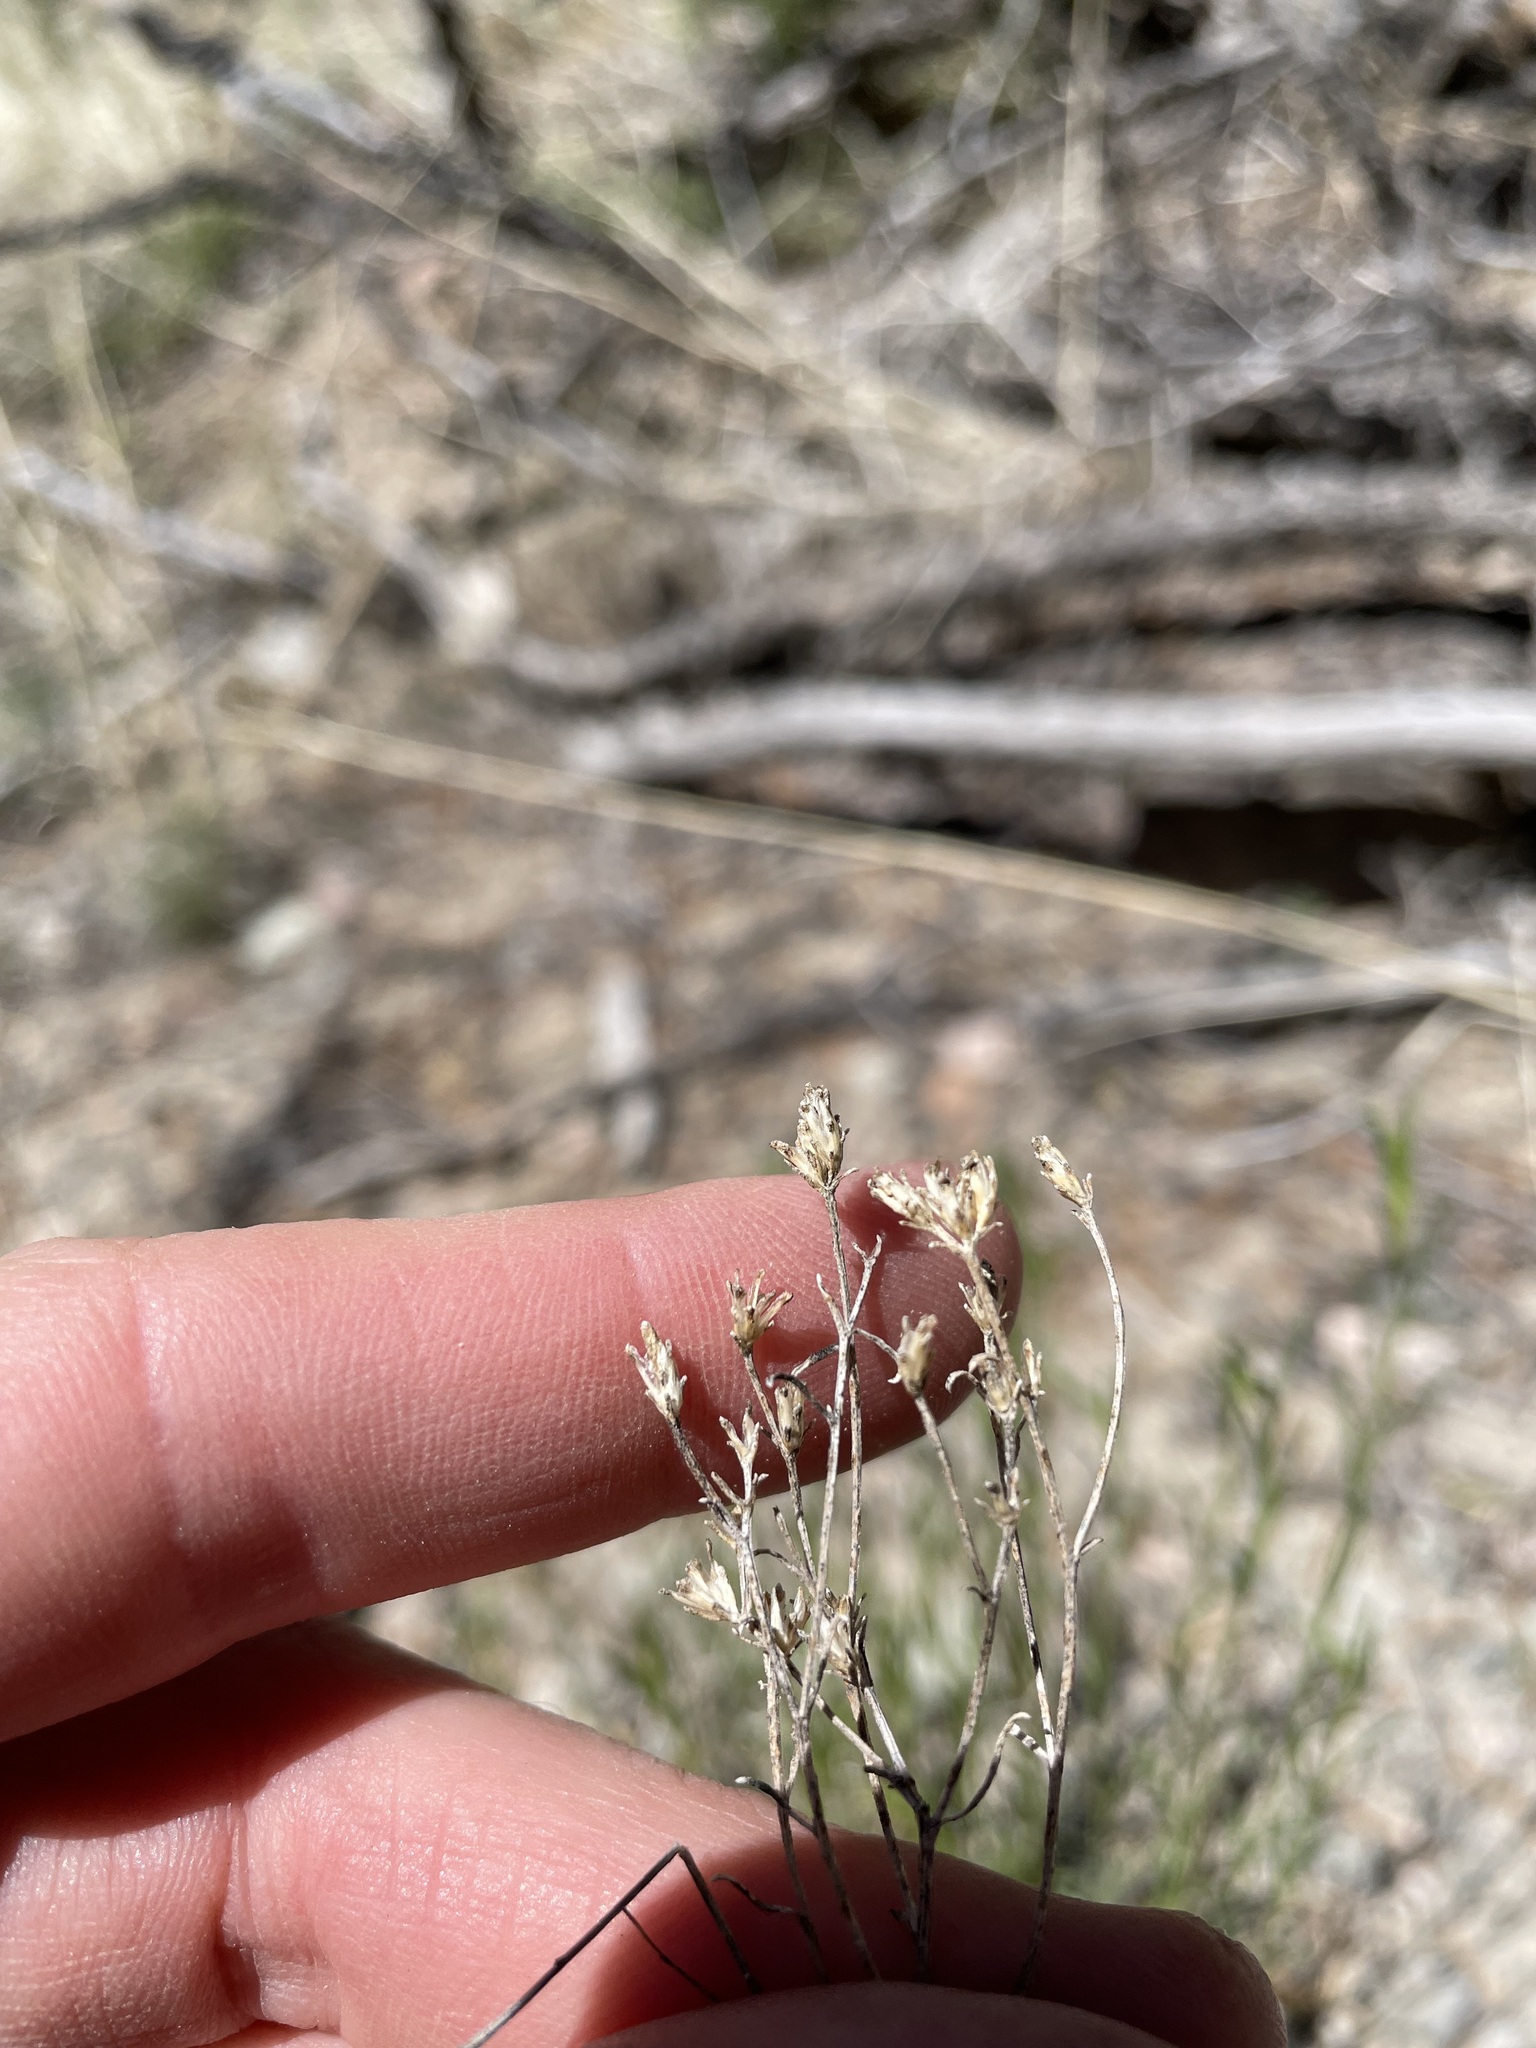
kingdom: Plantae
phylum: Tracheophyta
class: Magnoliopsida
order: Asterales
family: Asteraceae
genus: Gutierrezia
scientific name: Gutierrezia sarothrae
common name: Broom snakeweed
